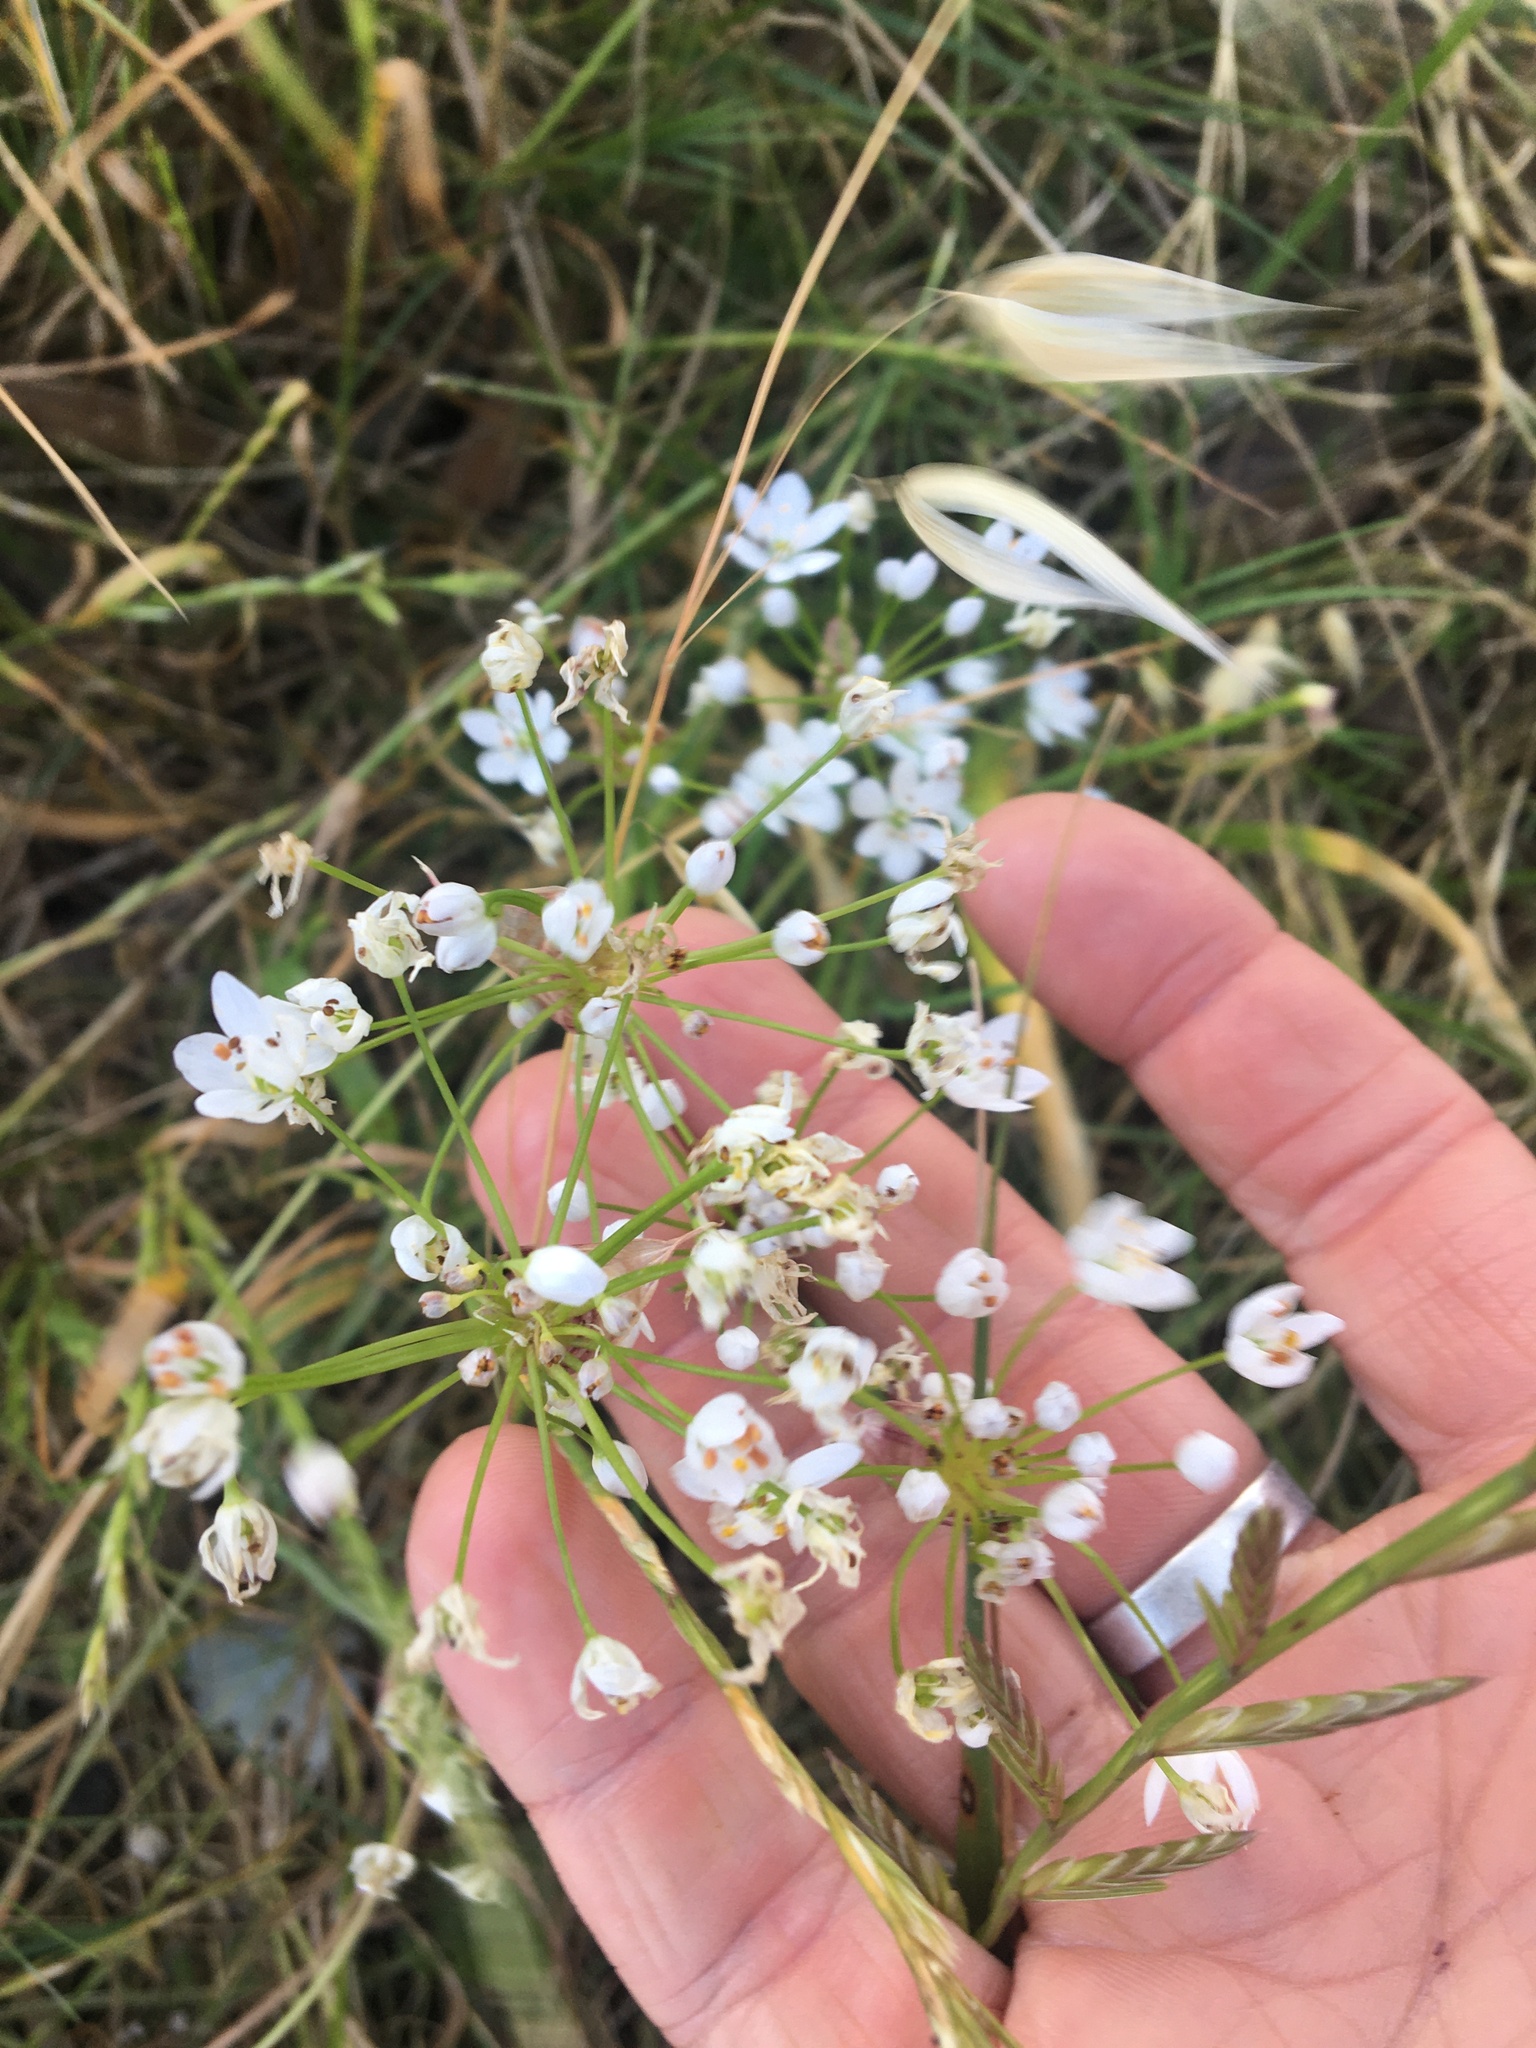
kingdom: Plantae
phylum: Tracheophyta
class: Liliopsida
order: Asparagales
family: Amaryllidaceae
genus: Allium
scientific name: Allium neapolitanum
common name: Neapolitan garlic
